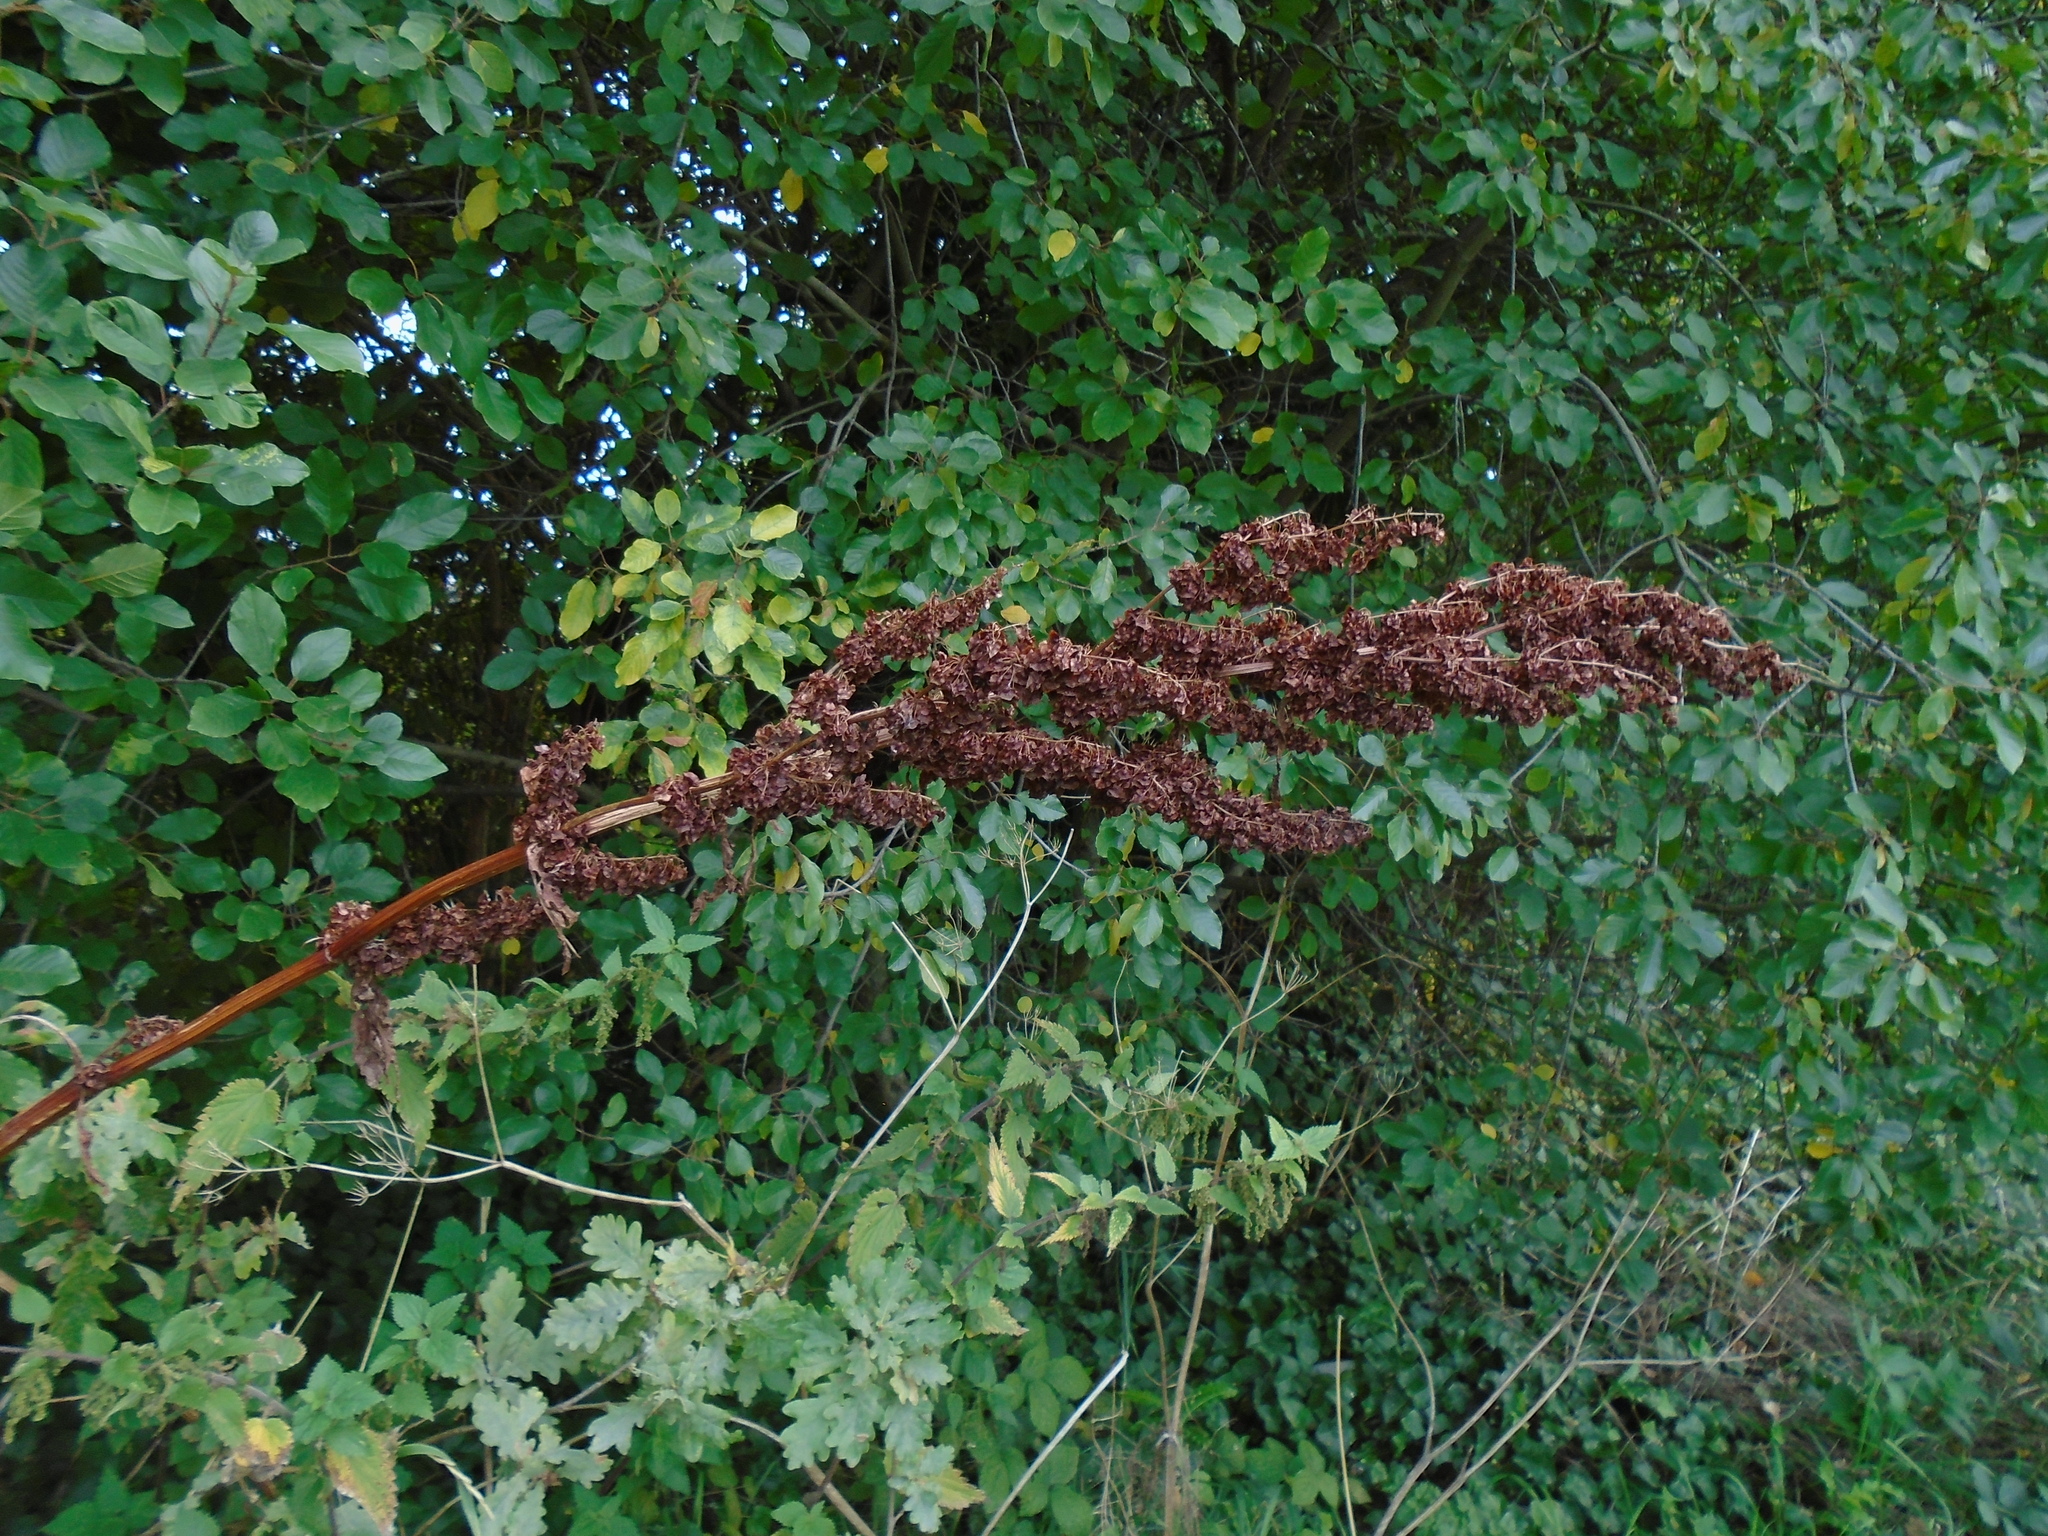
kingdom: Plantae
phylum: Tracheophyta
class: Magnoliopsida
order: Caryophyllales
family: Polygonaceae
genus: Rumex
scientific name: Rumex cristatus
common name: Greek dock
